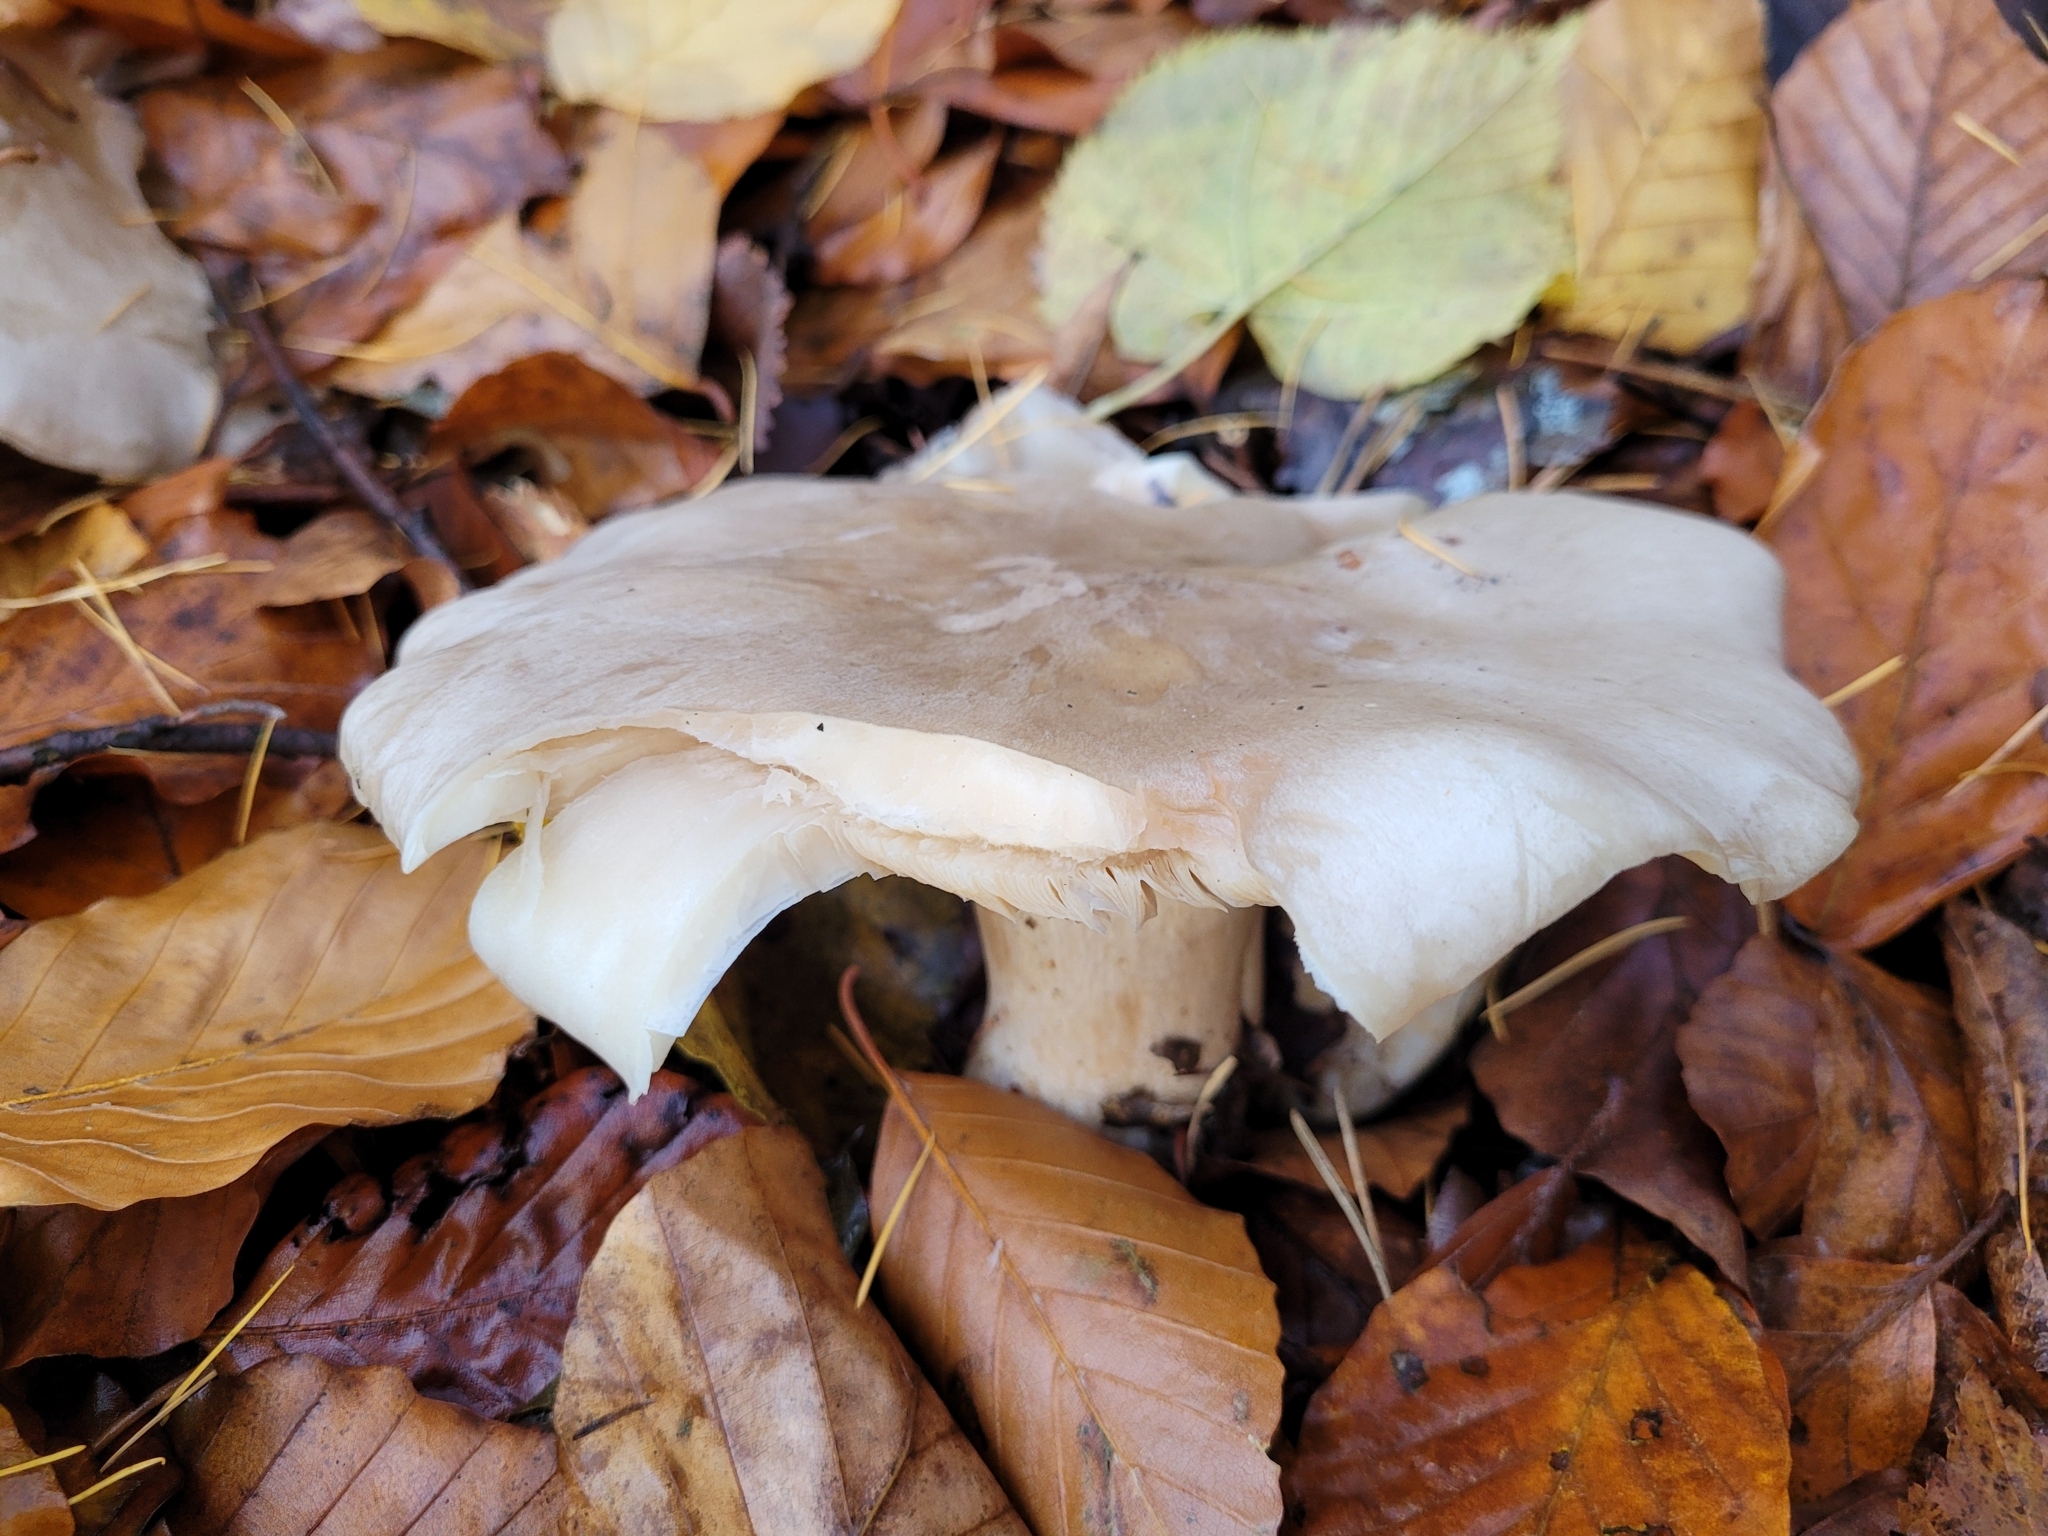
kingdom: Fungi
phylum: Basidiomycota
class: Agaricomycetes
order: Agaricales
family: Tricholomataceae
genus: Clitocybe
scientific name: Clitocybe nebularis
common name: Clouded agaric
